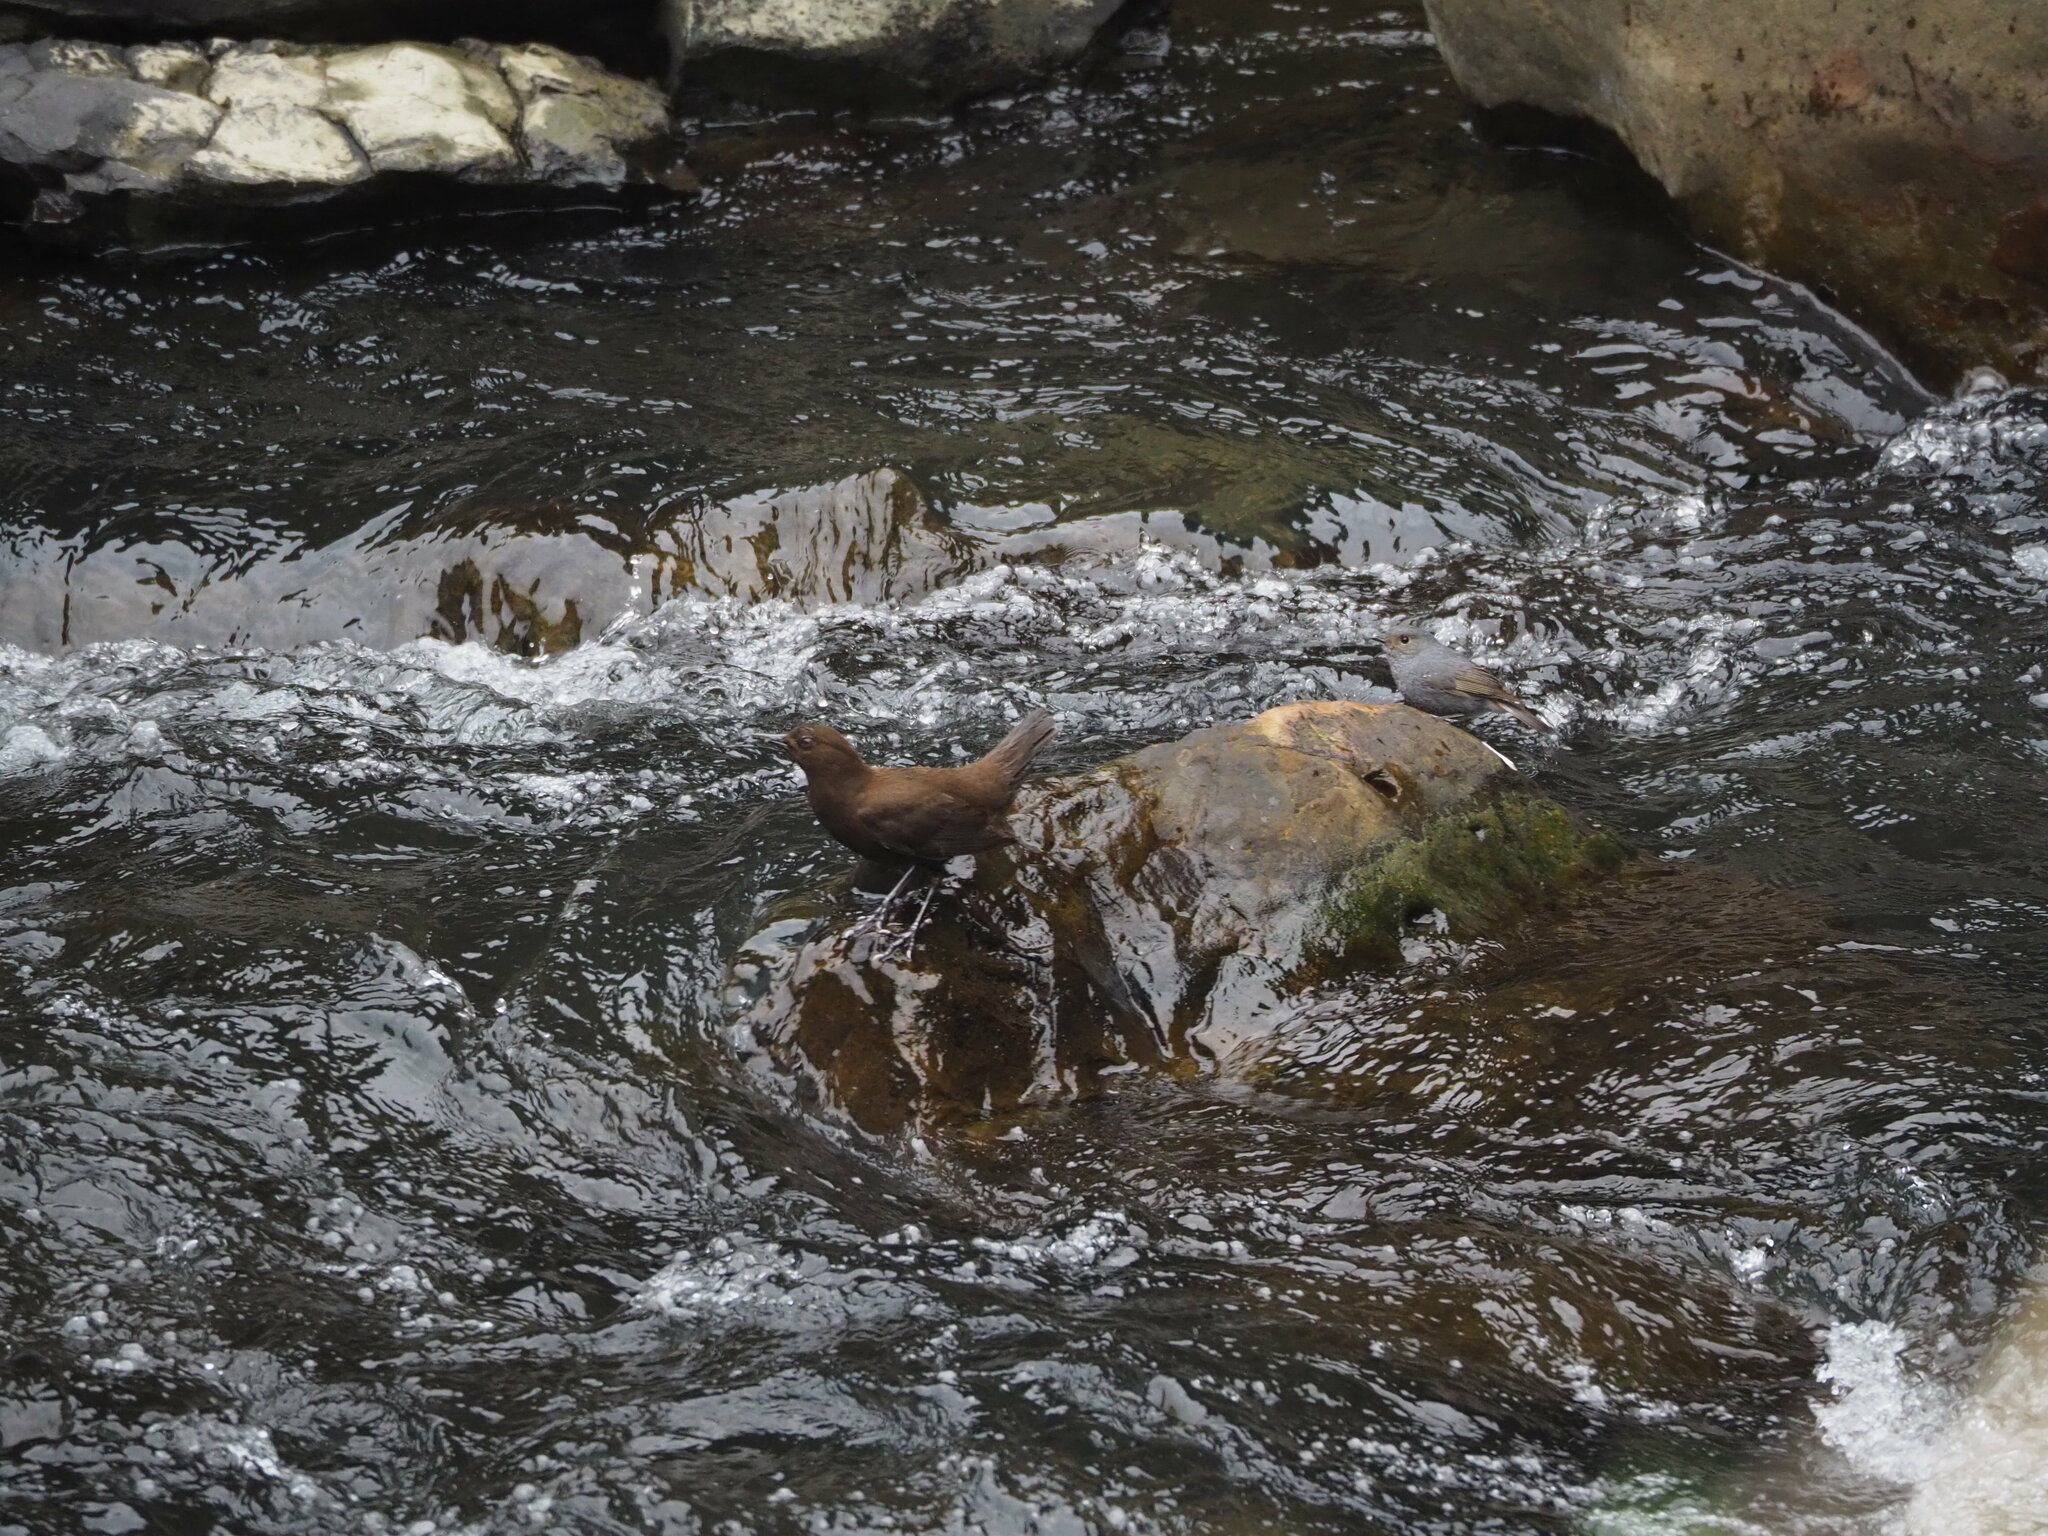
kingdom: Animalia
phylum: Chordata
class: Aves
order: Passeriformes
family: Cinclidae
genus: Cinclus
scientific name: Cinclus pallasii
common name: Brown dipper
